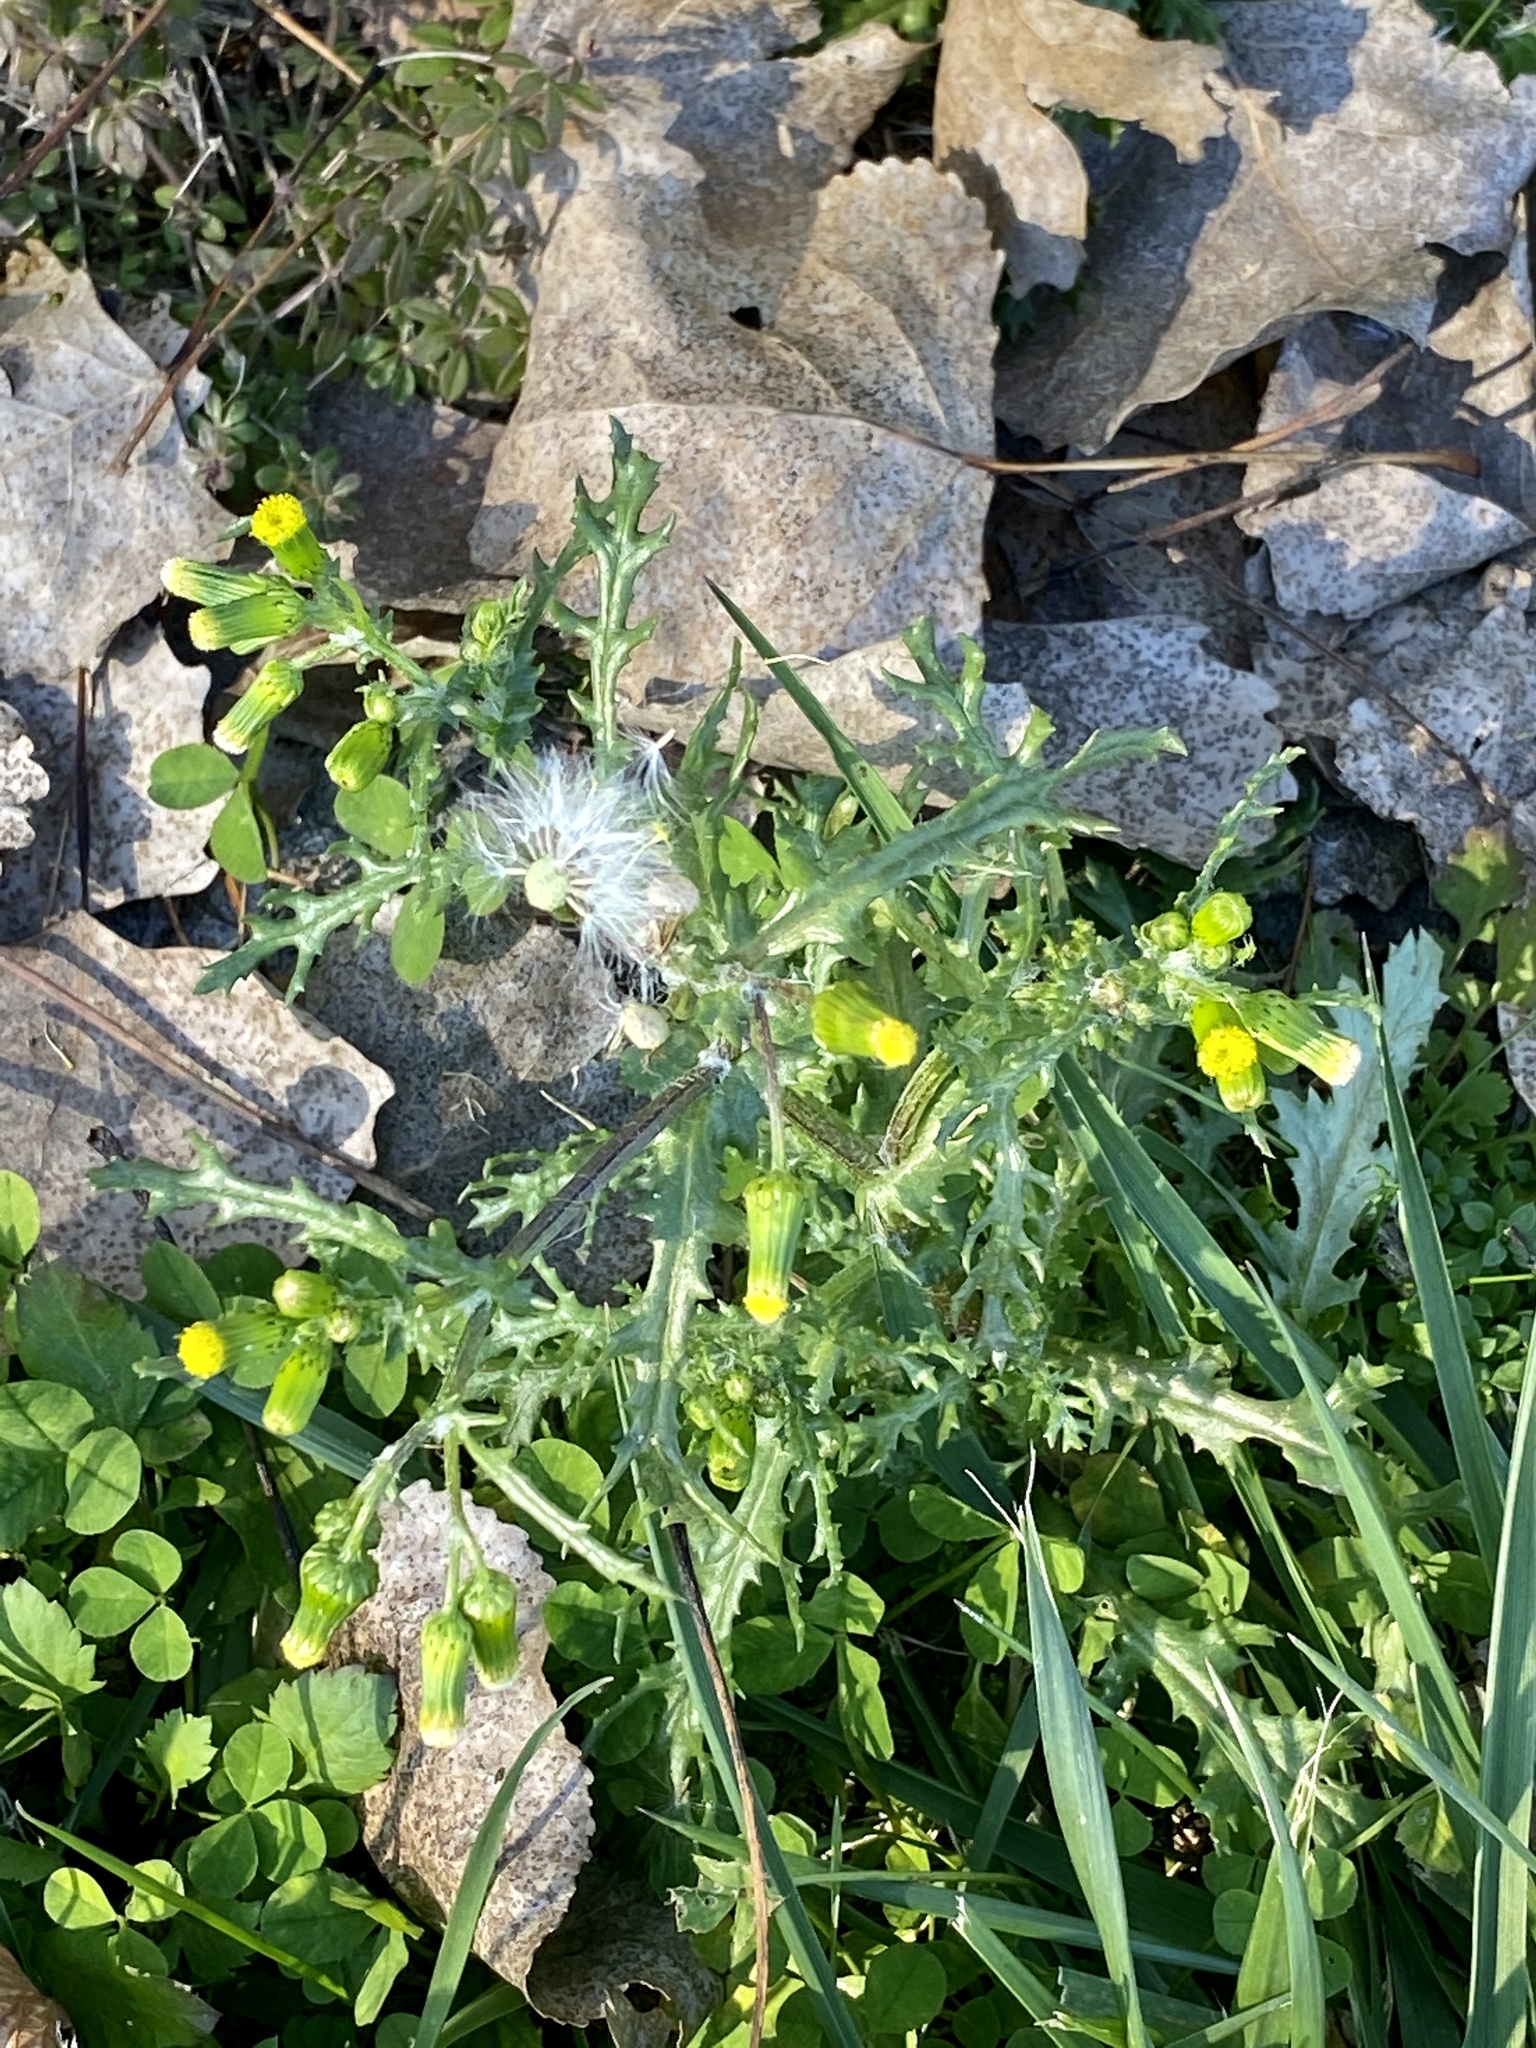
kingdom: Plantae
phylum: Tracheophyta
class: Magnoliopsida
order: Asterales
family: Asteraceae
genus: Senecio
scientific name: Senecio vulgaris
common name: Old-man-in-the-spring
